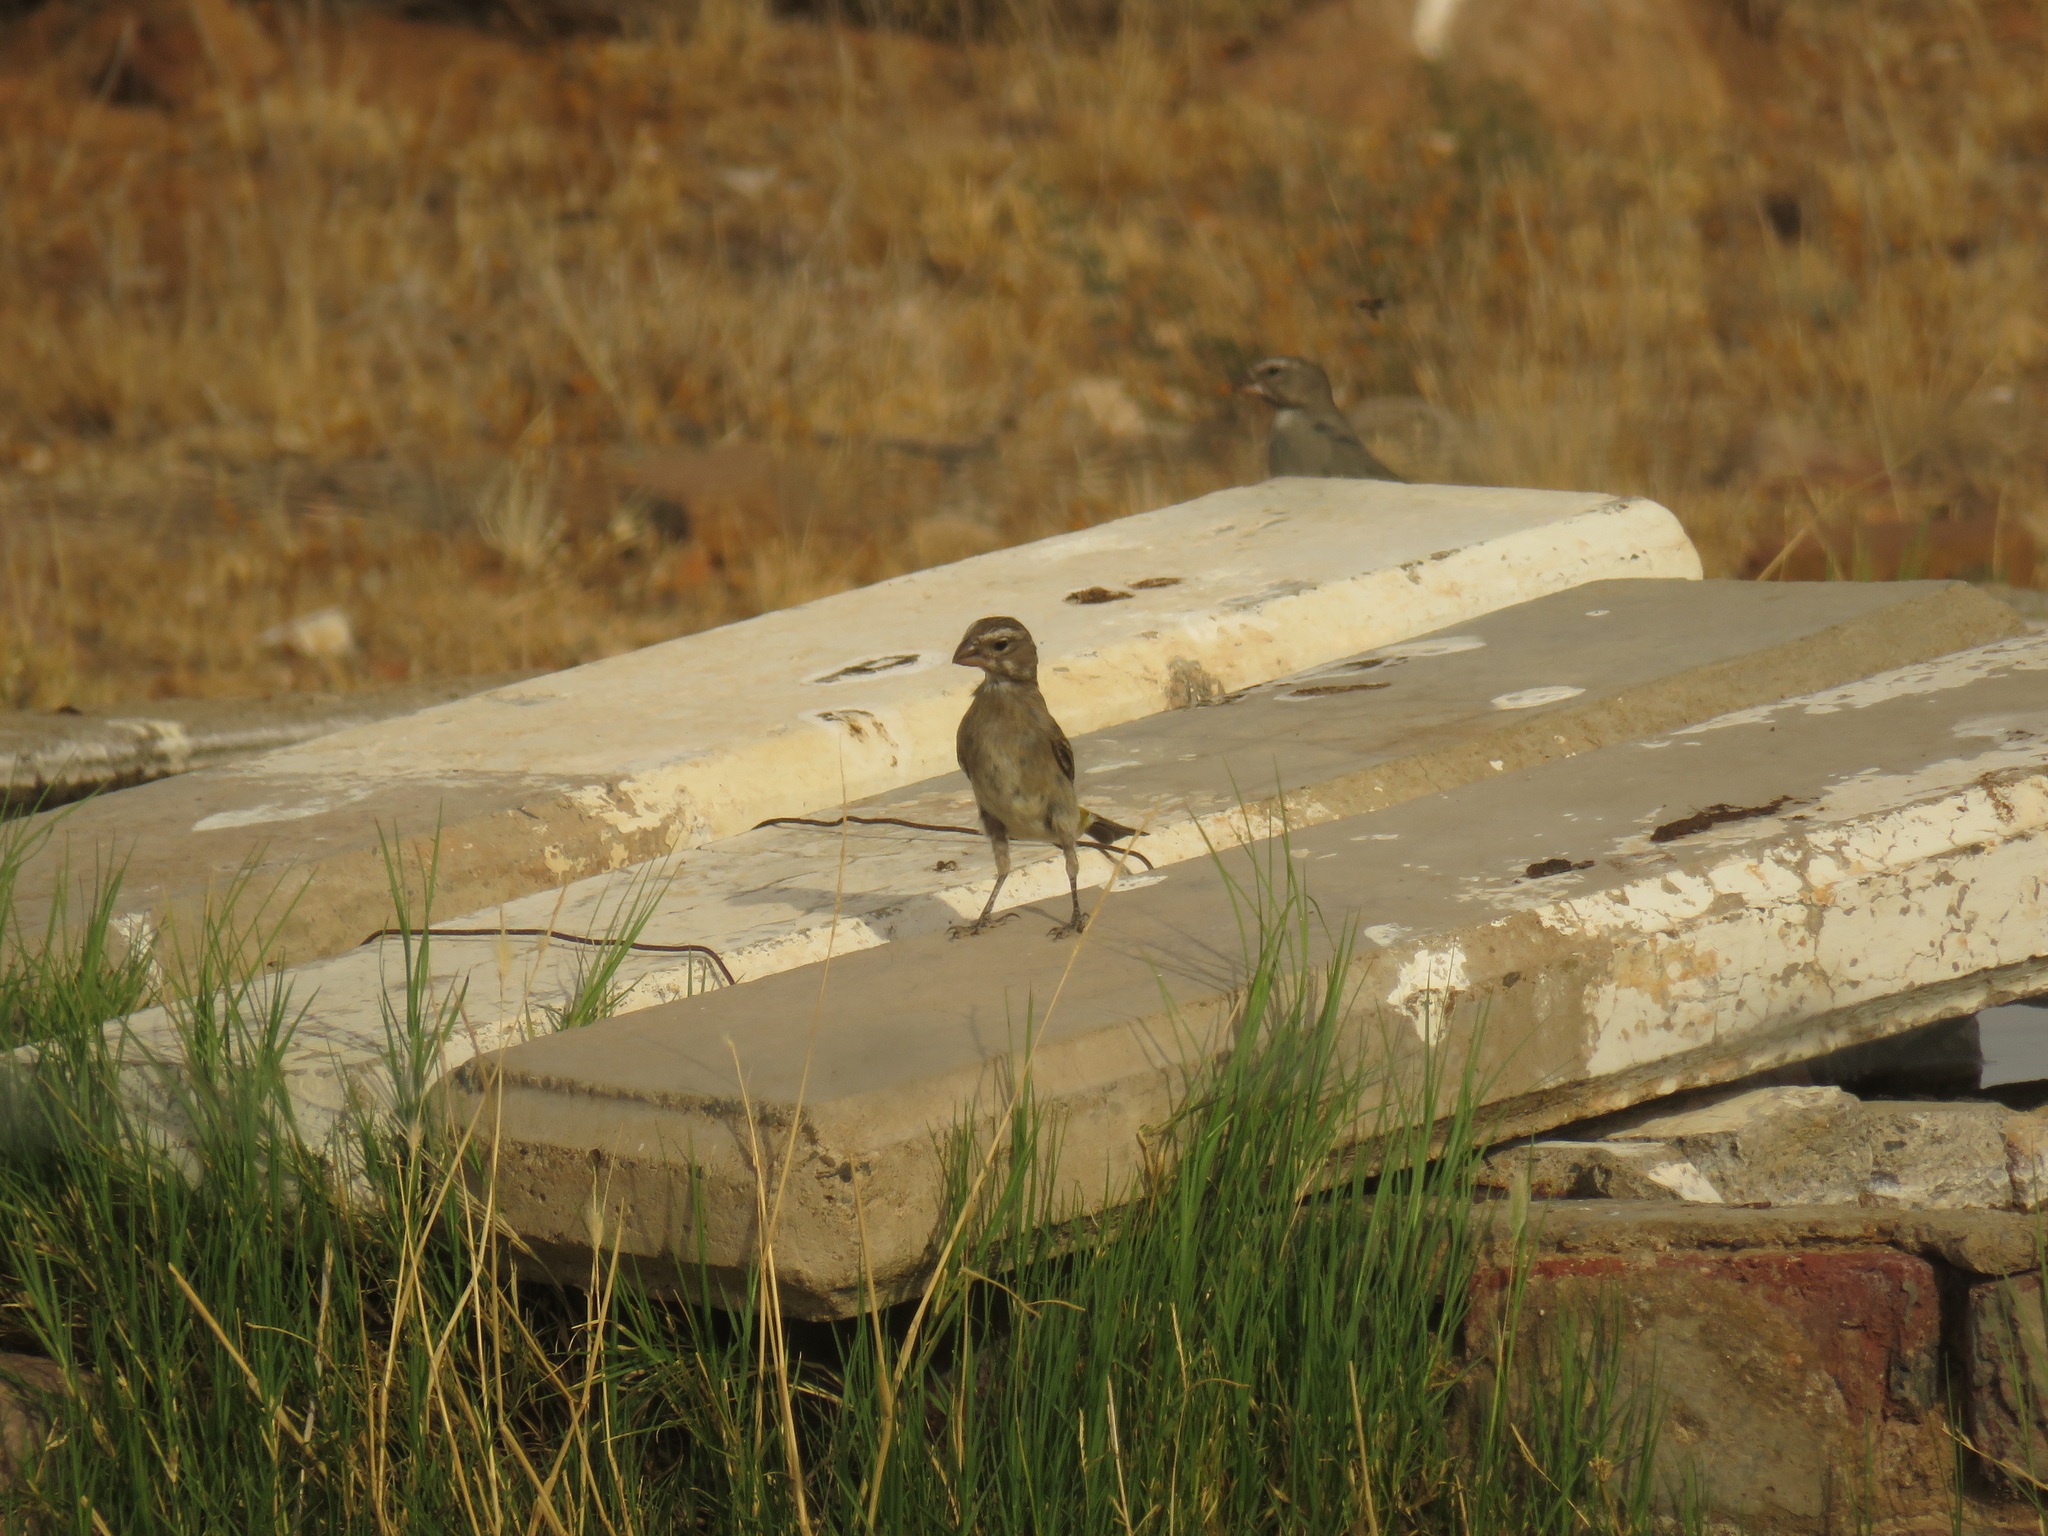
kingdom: Animalia
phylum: Chordata
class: Aves
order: Passeriformes
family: Fringillidae
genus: Crithagra
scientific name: Crithagra albogularis
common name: White-throated canary
